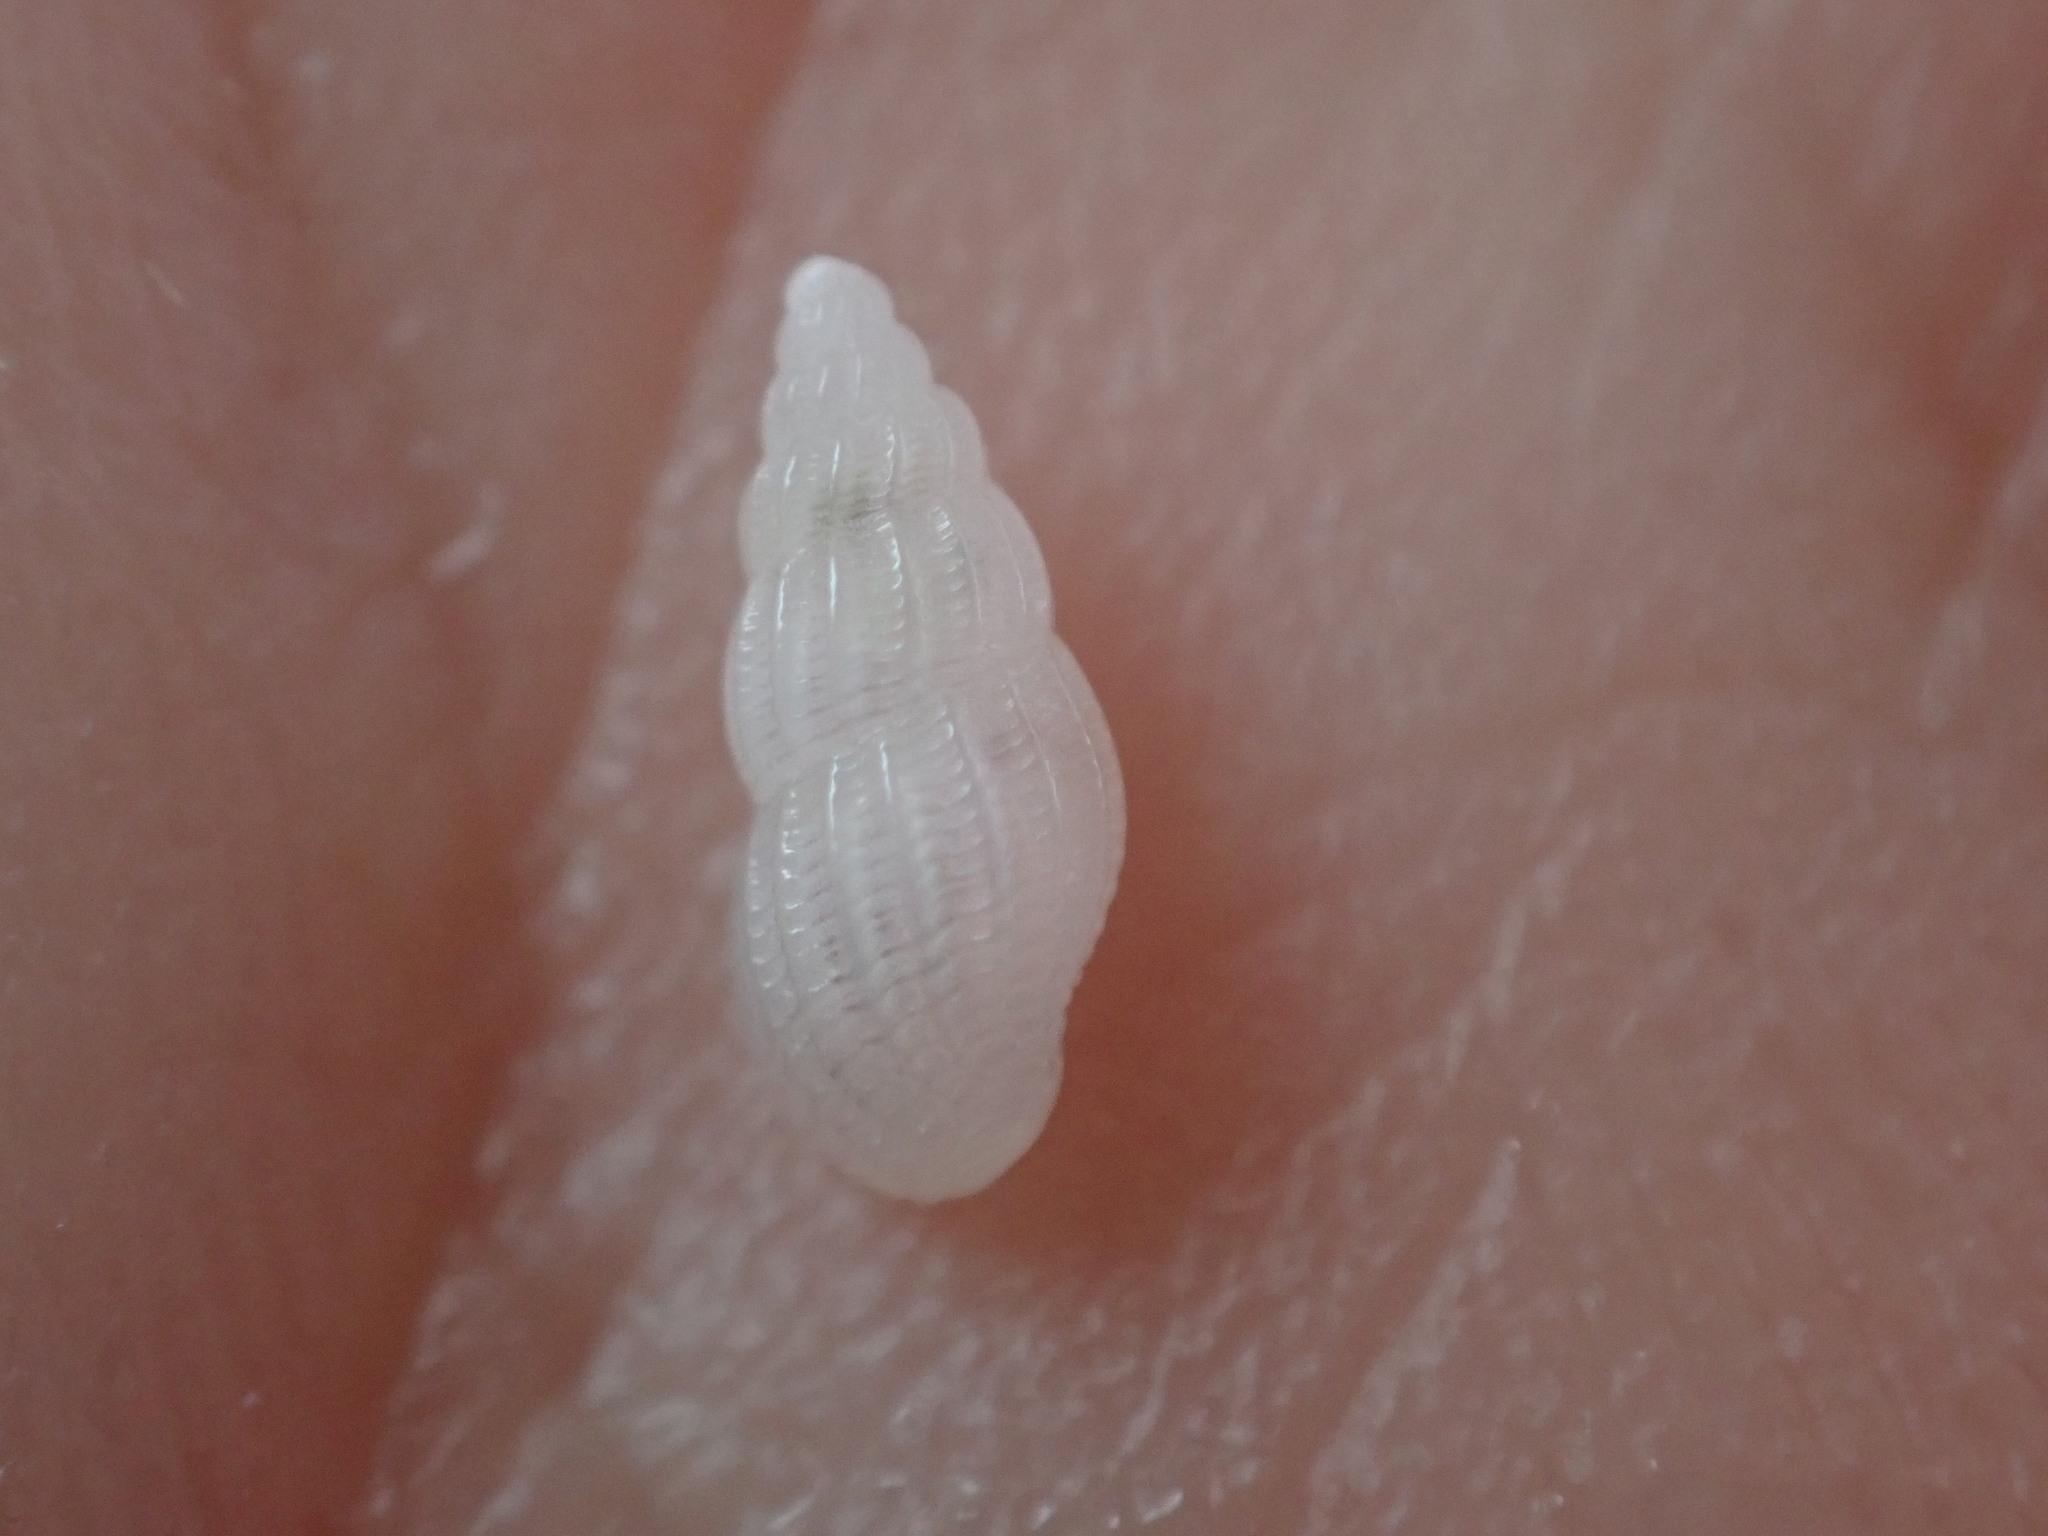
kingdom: Animalia
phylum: Mollusca
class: Gastropoda
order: Littorinimorpha
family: Rissoinidae
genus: Rissoina
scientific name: Rissoina bruguieri
